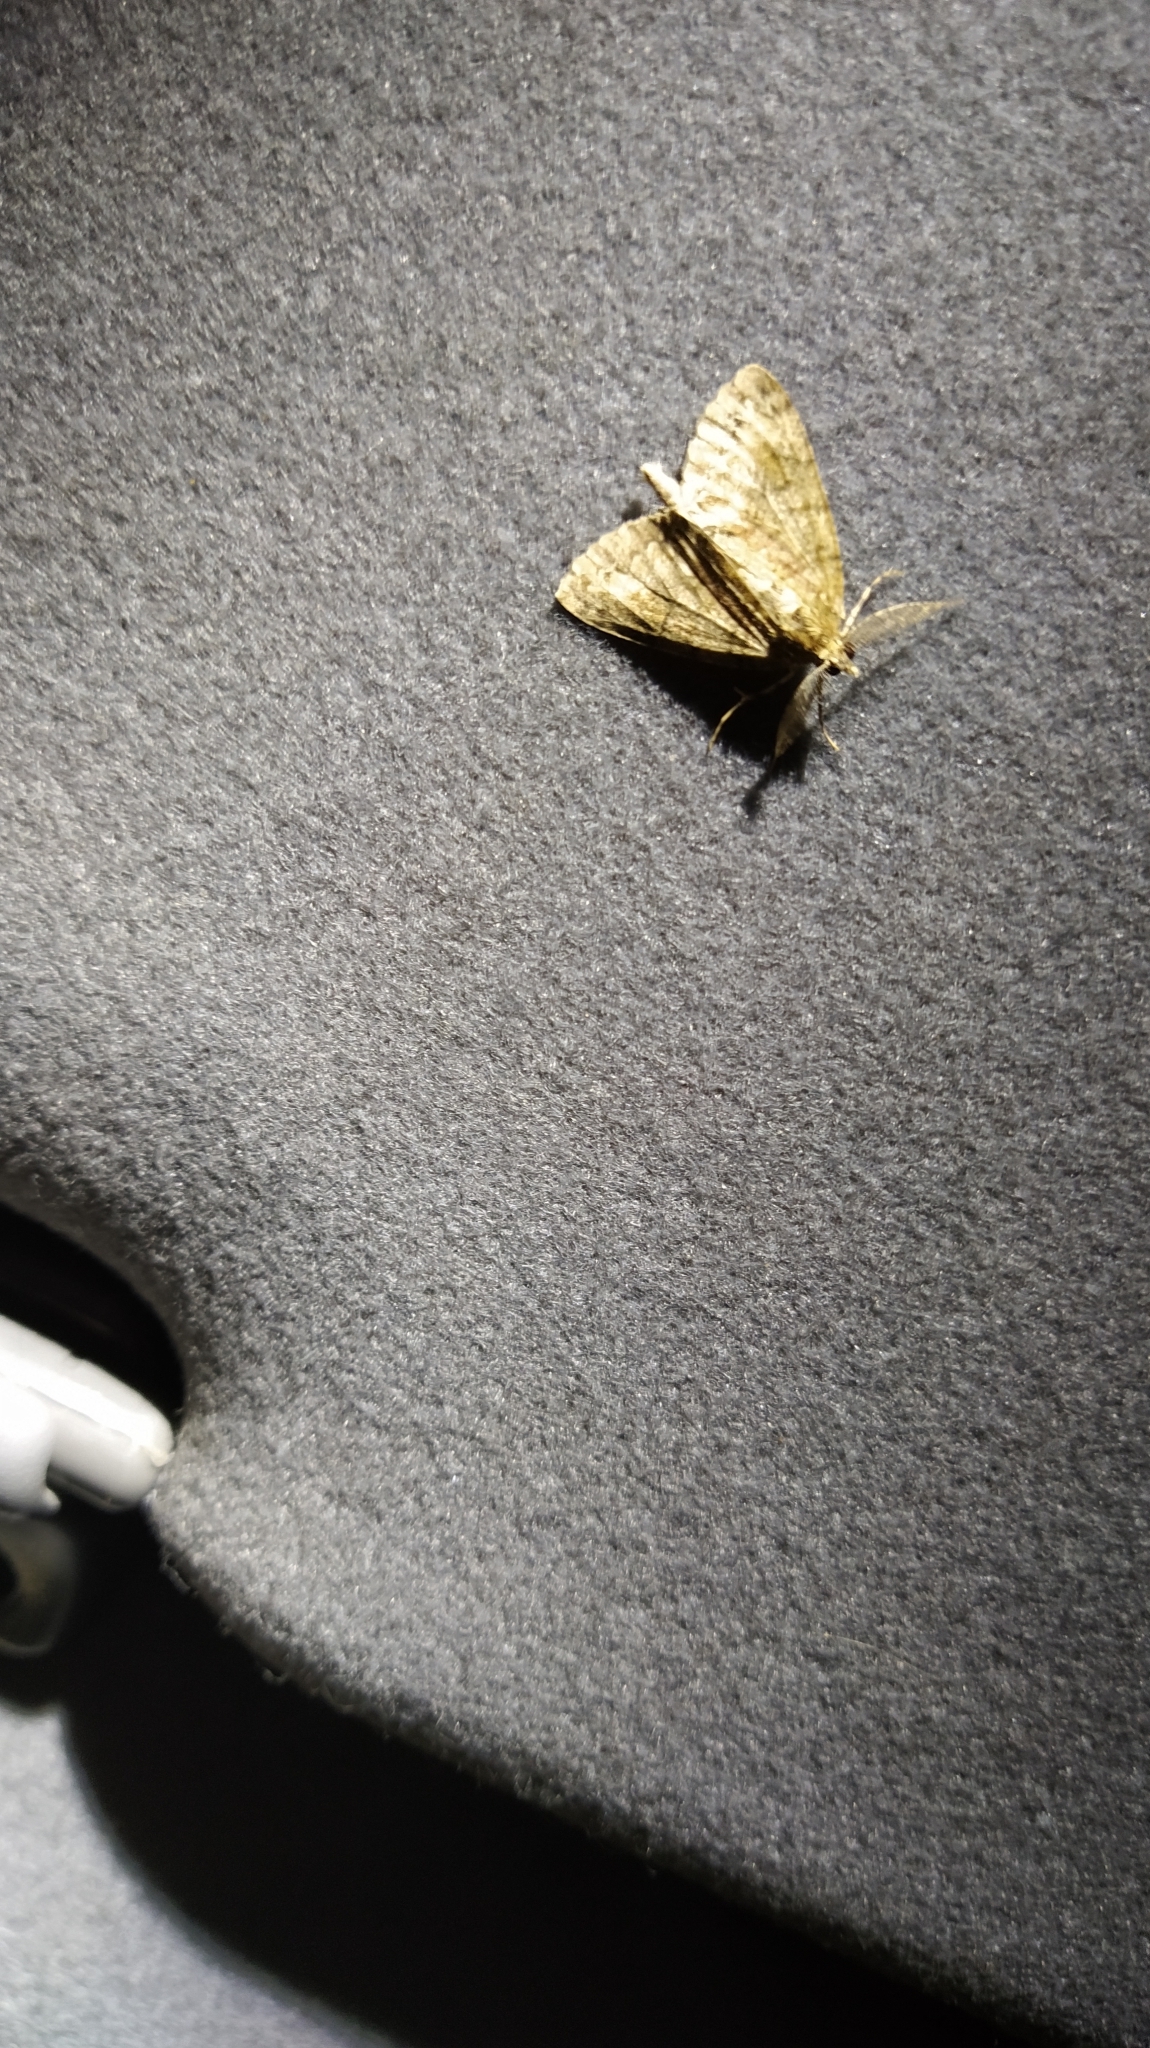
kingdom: Animalia
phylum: Arthropoda
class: Insecta
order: Lepidoptera
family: Geometridae
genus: Pseudocoremia
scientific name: Pseudocoremia suavis
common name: Common forest looper
